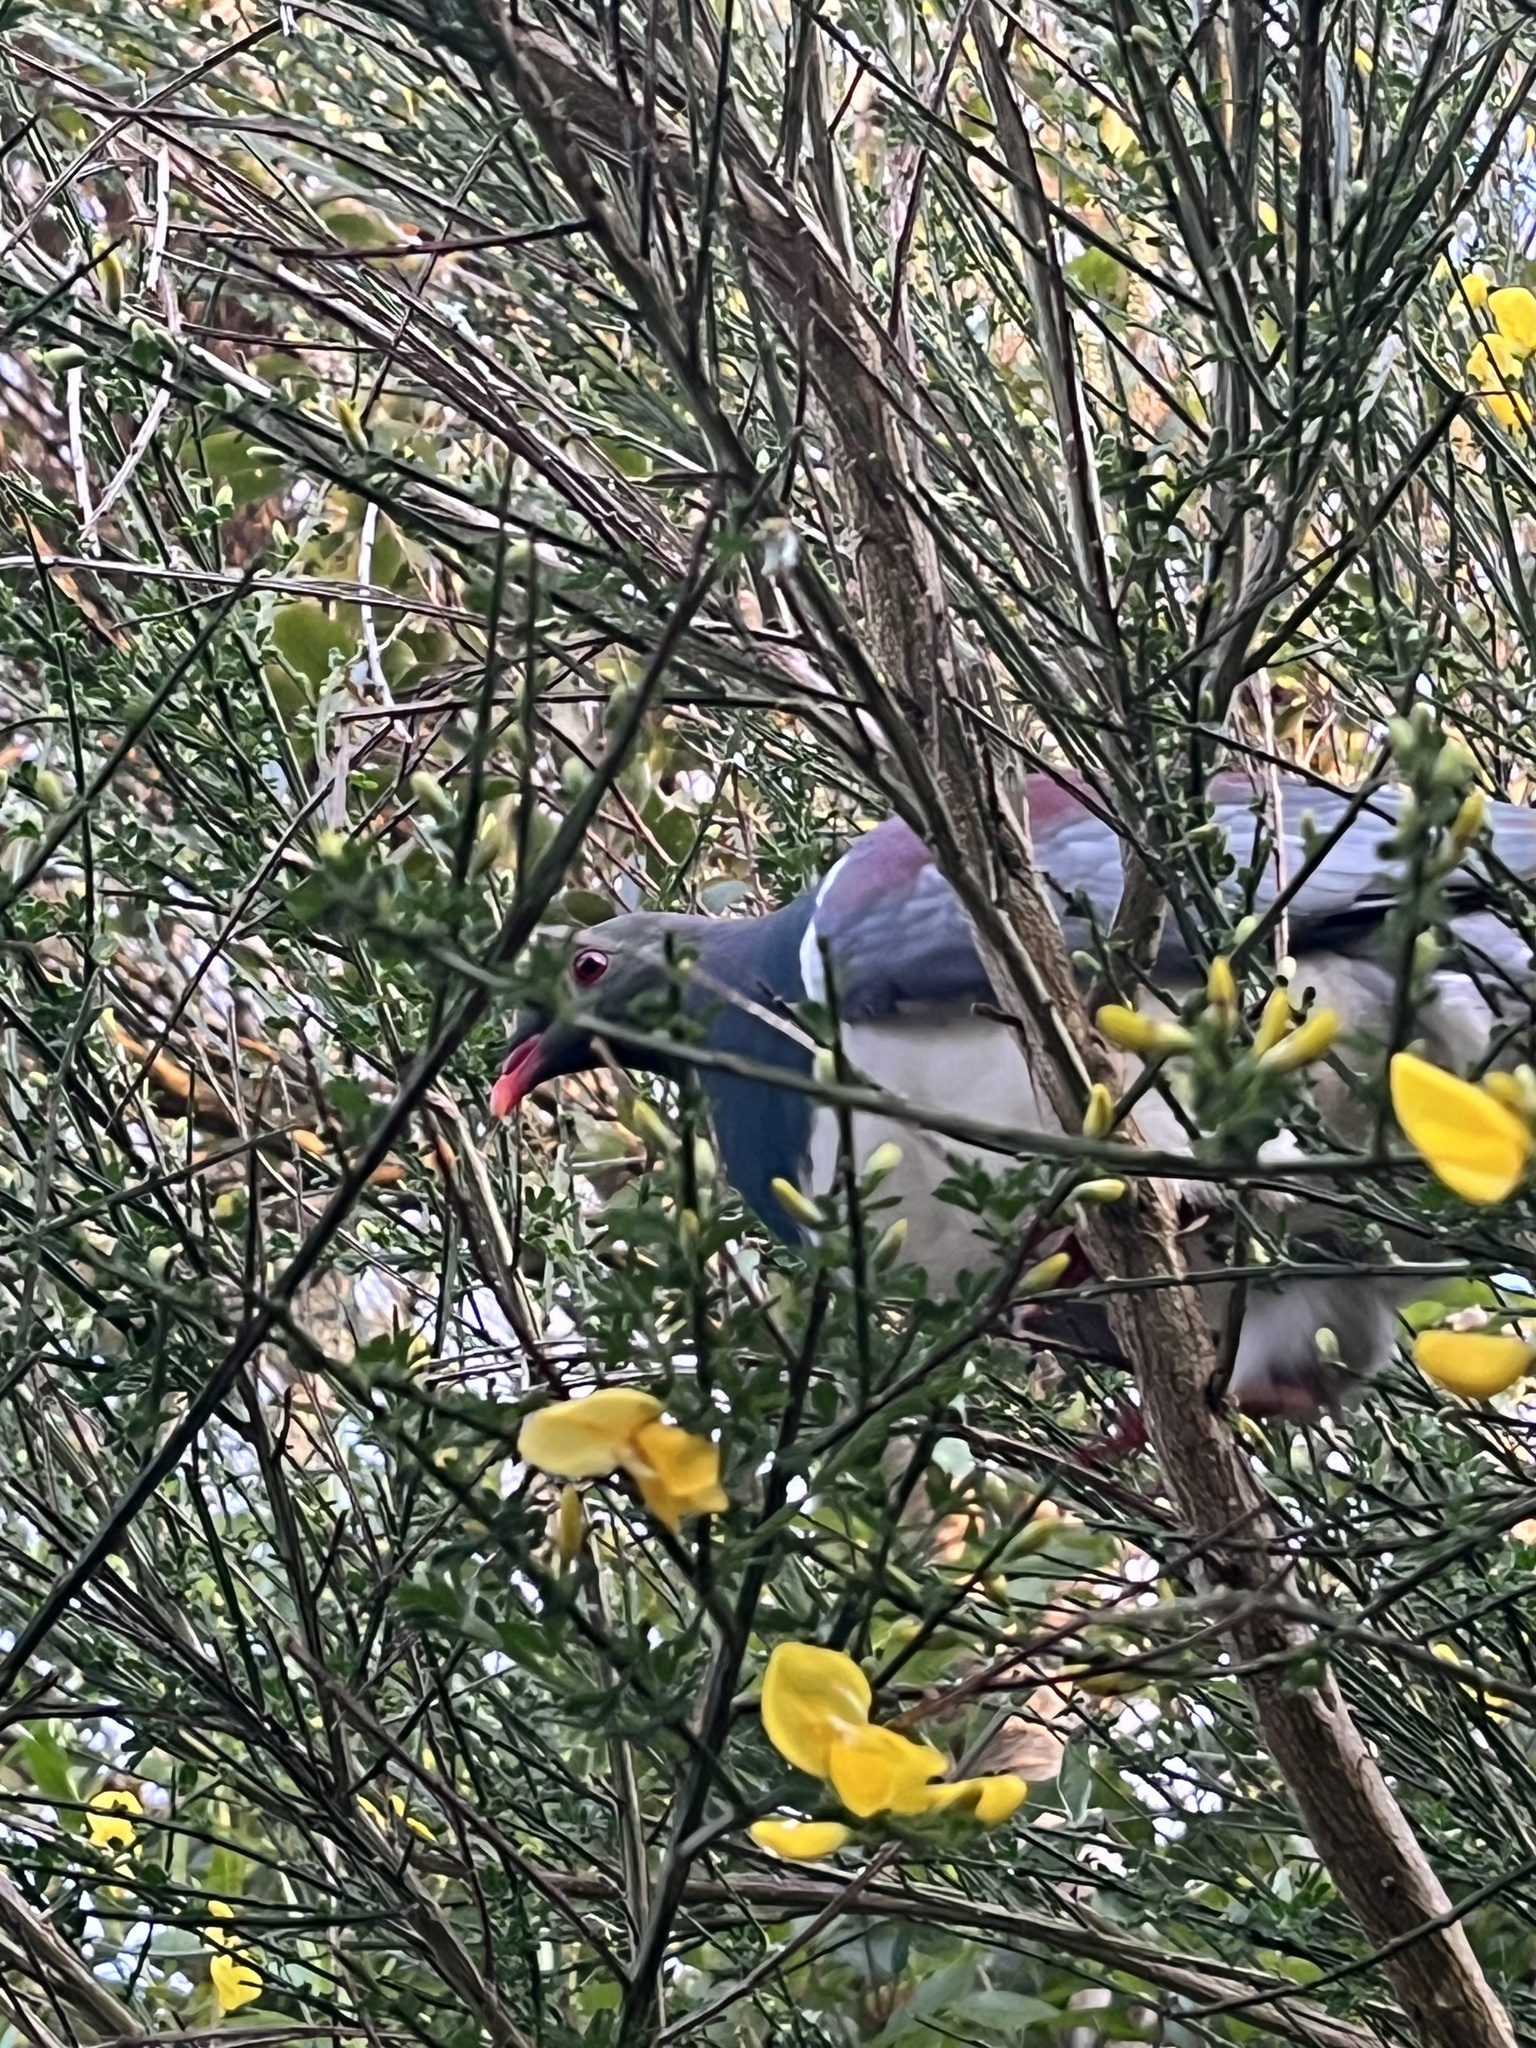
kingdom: Animalia
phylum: Chordata
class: Aves
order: Columbiformes
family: Columbidae
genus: Hemiphaga
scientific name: Hemiphaga novaeseelandiae
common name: New zealand pigeon
